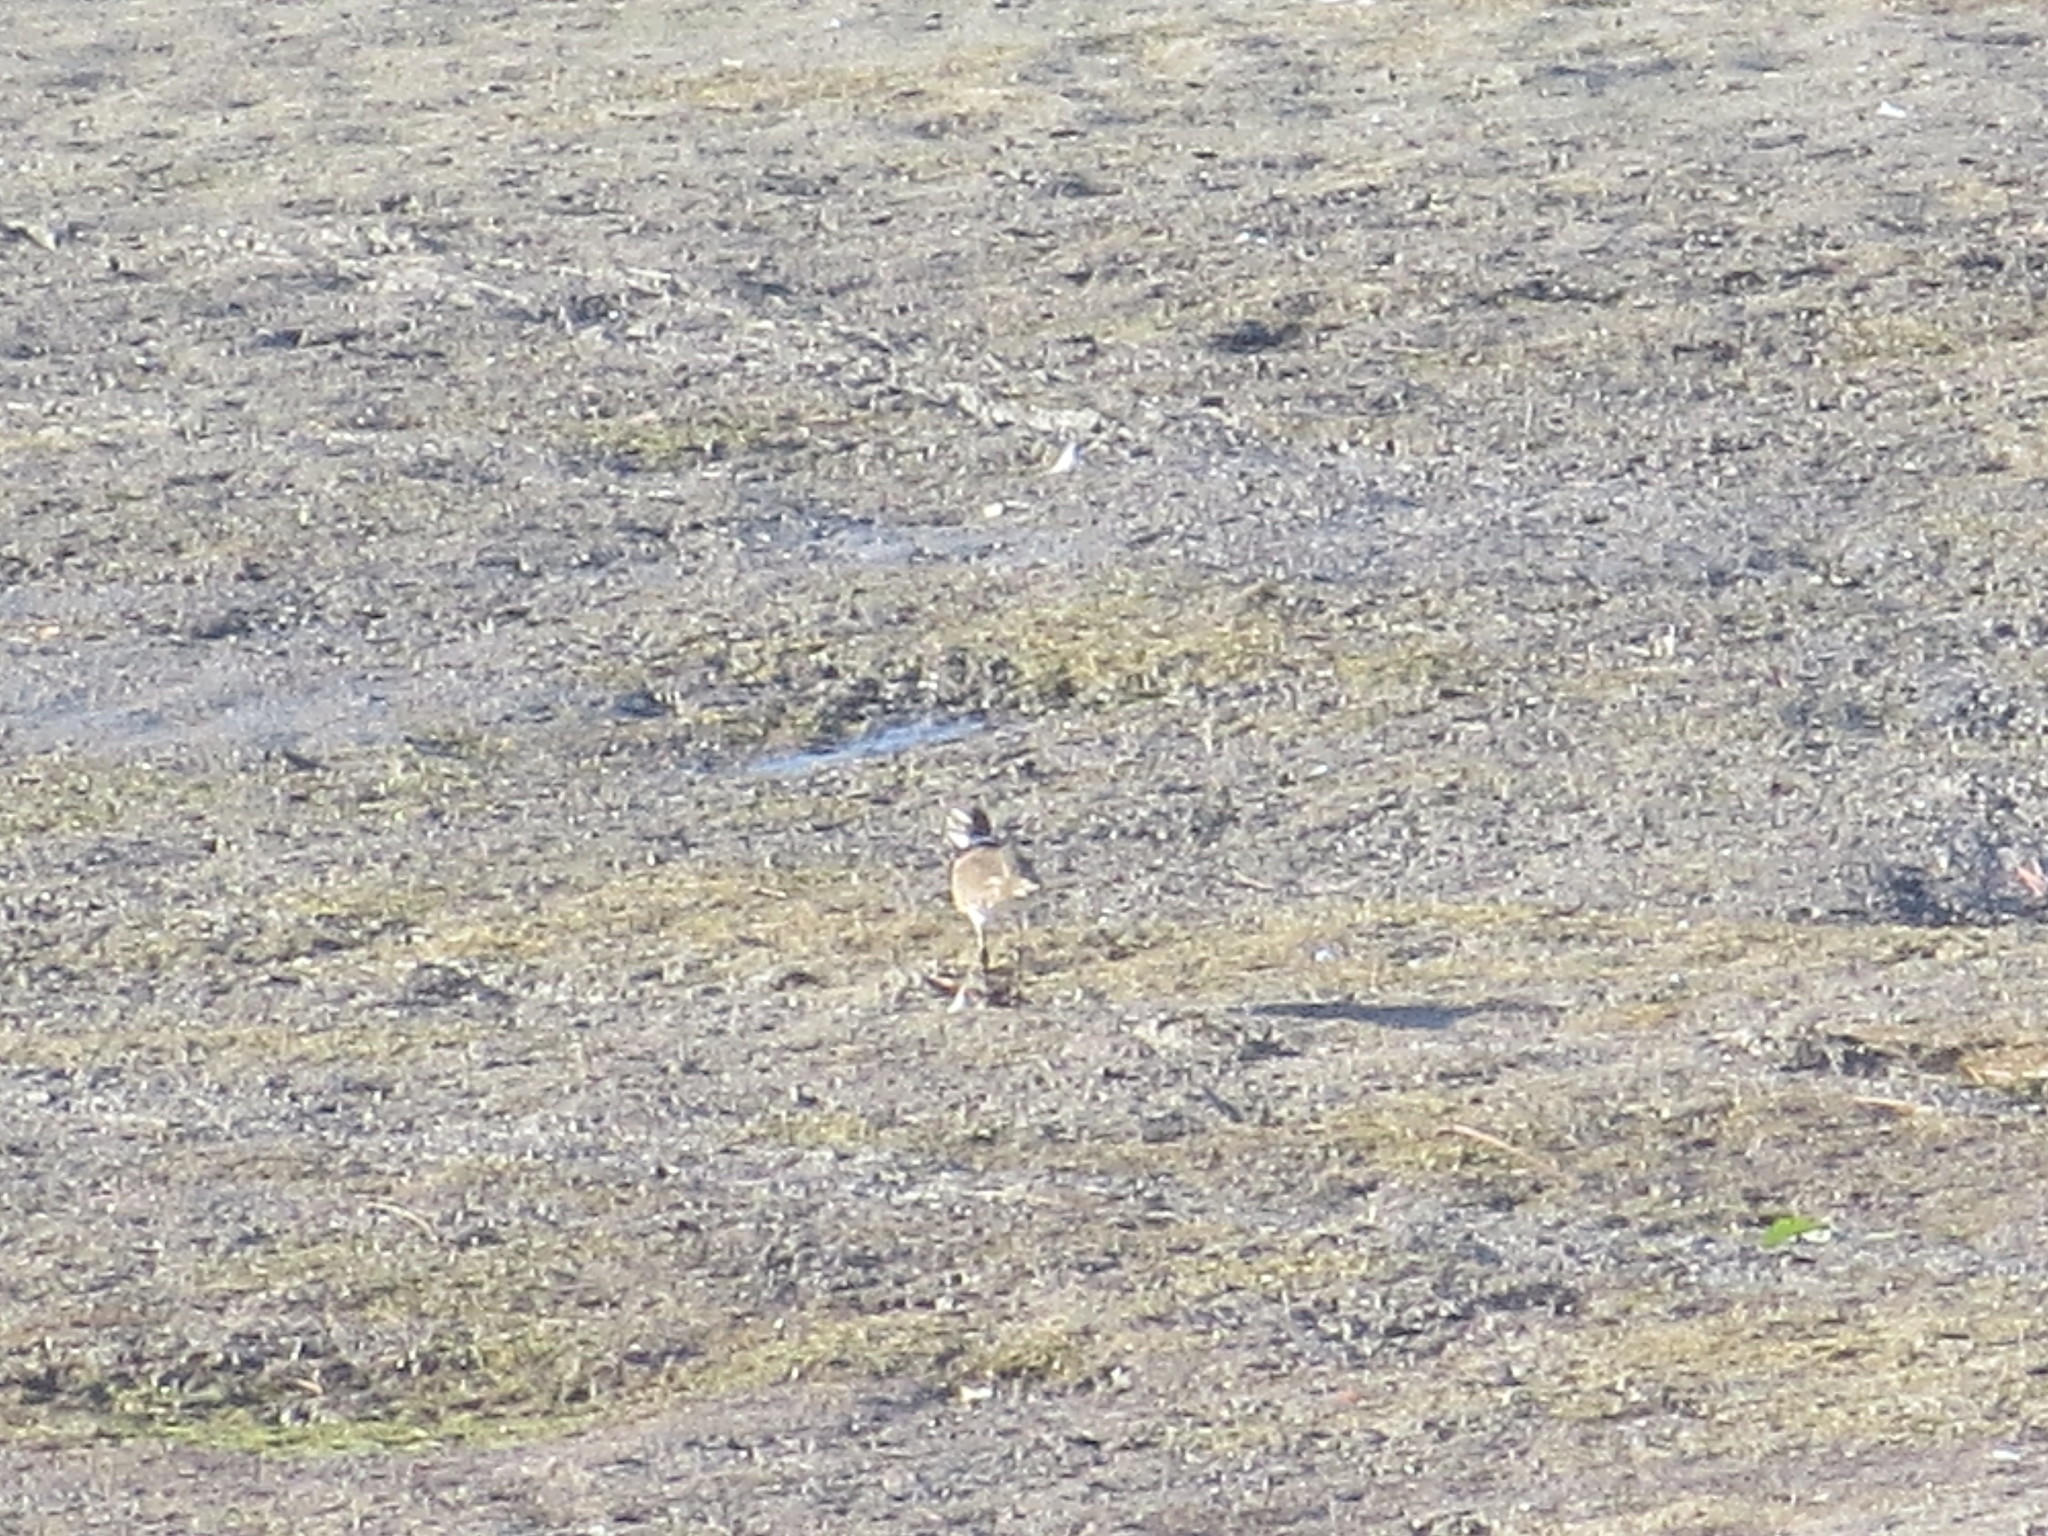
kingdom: Animalia
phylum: Chordata
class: Aves
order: Charadriiformes
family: Charadriidae
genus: Charadrius
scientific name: Charadrius vociferus
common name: Killdeer
